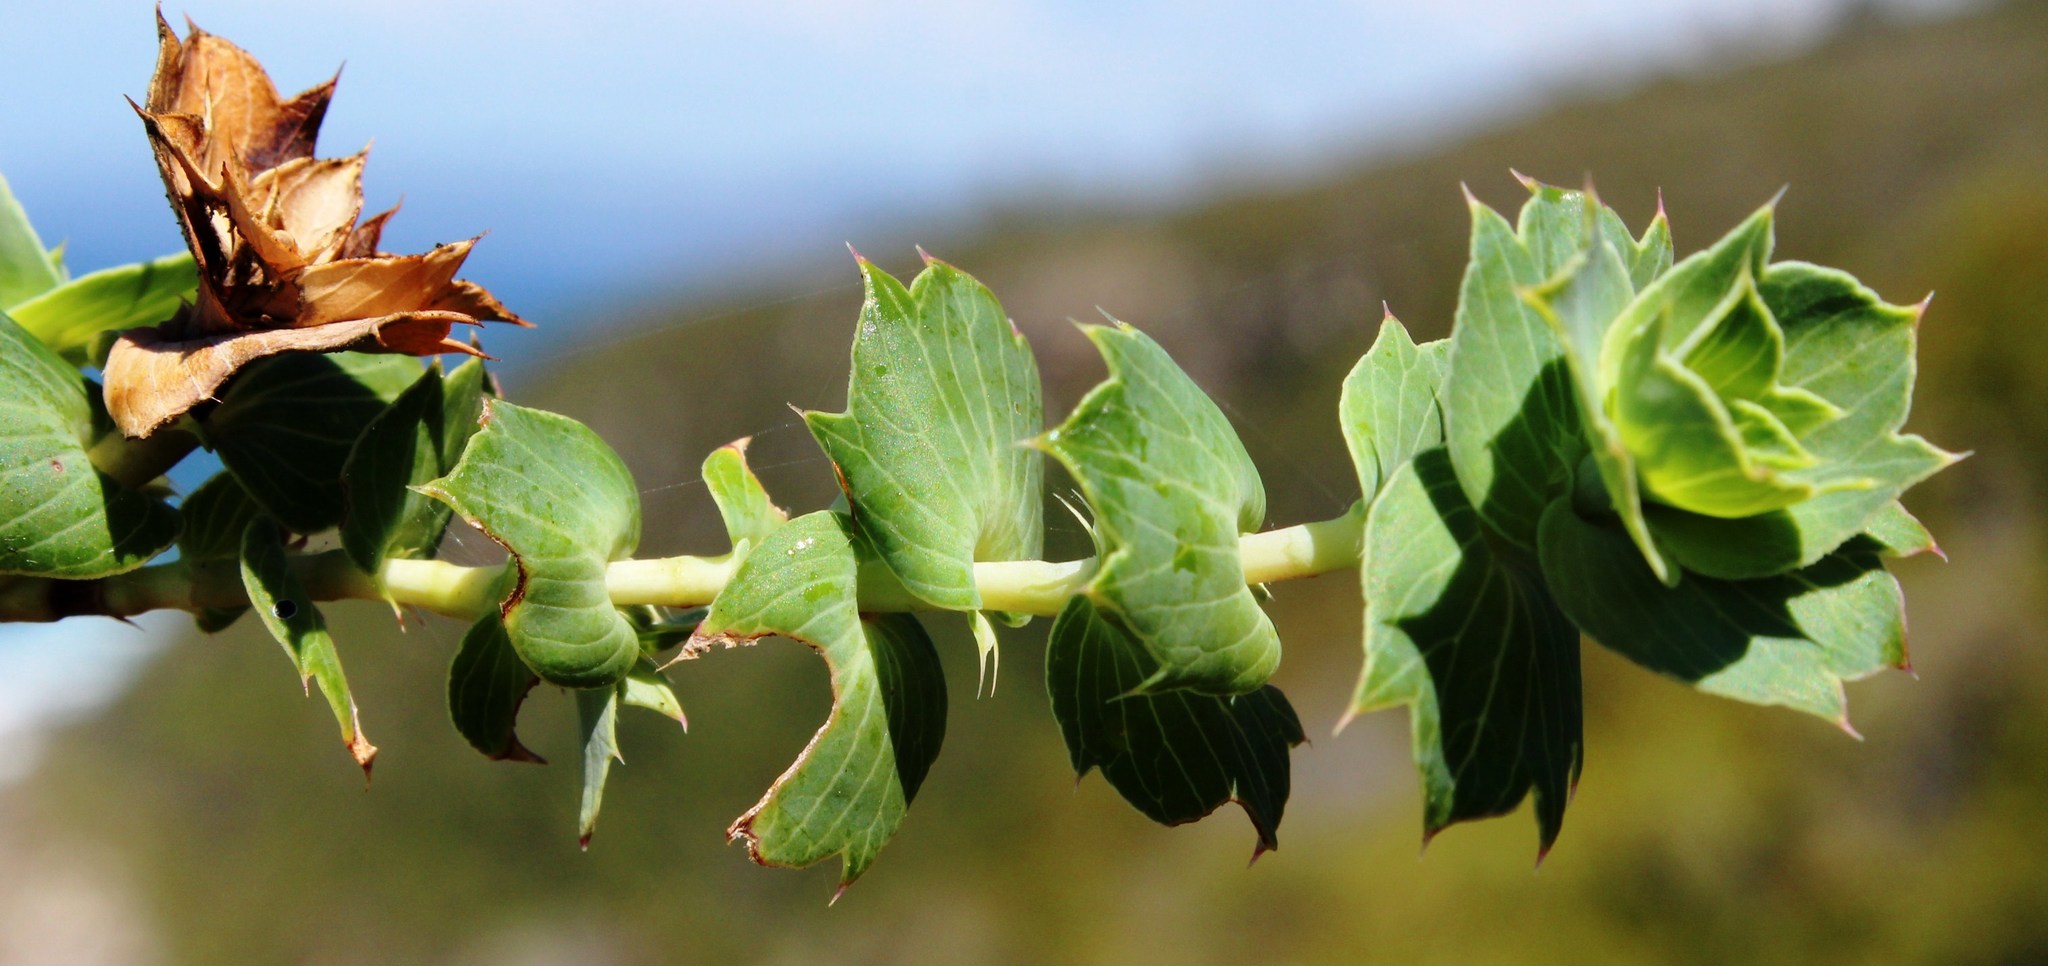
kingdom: Plantae
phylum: Tracheophyta
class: Magnoliopsida
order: Rosales
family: Rosaceae
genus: Cliffortia
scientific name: Cliffortia ilicifolia
